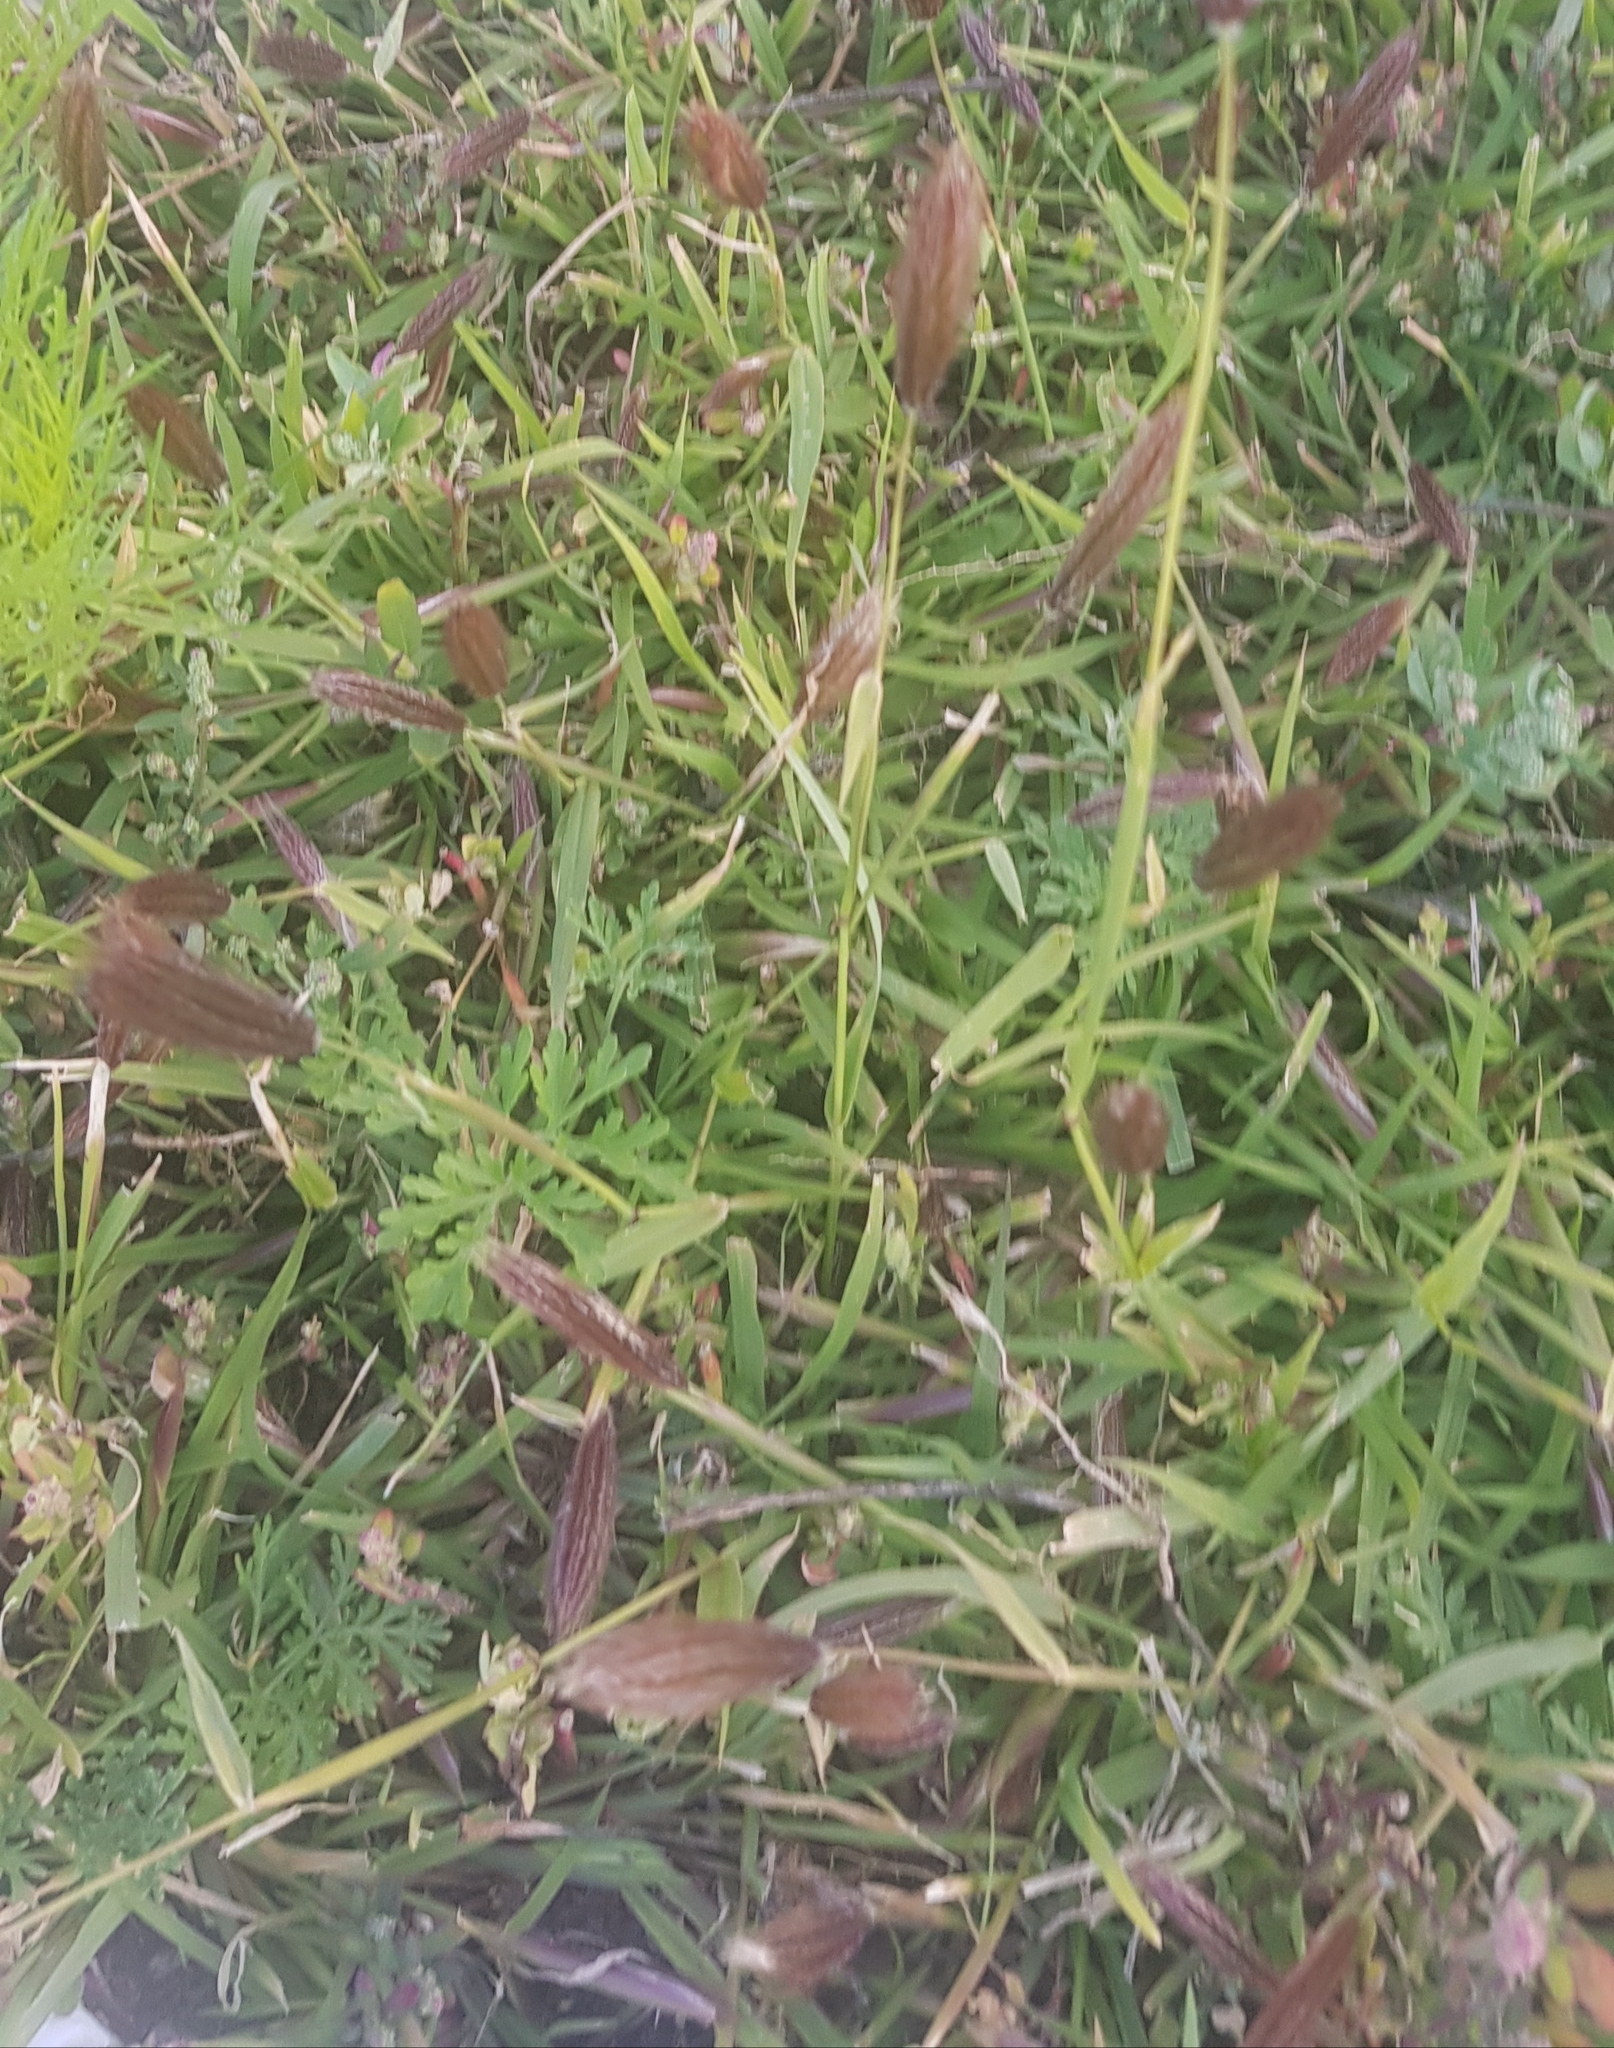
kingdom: Plantae
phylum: Tracheophyta
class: Liliopsida
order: Poales
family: Poaceae
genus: Chloris
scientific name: Chloris virgata
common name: Feathery rhodes-grass
